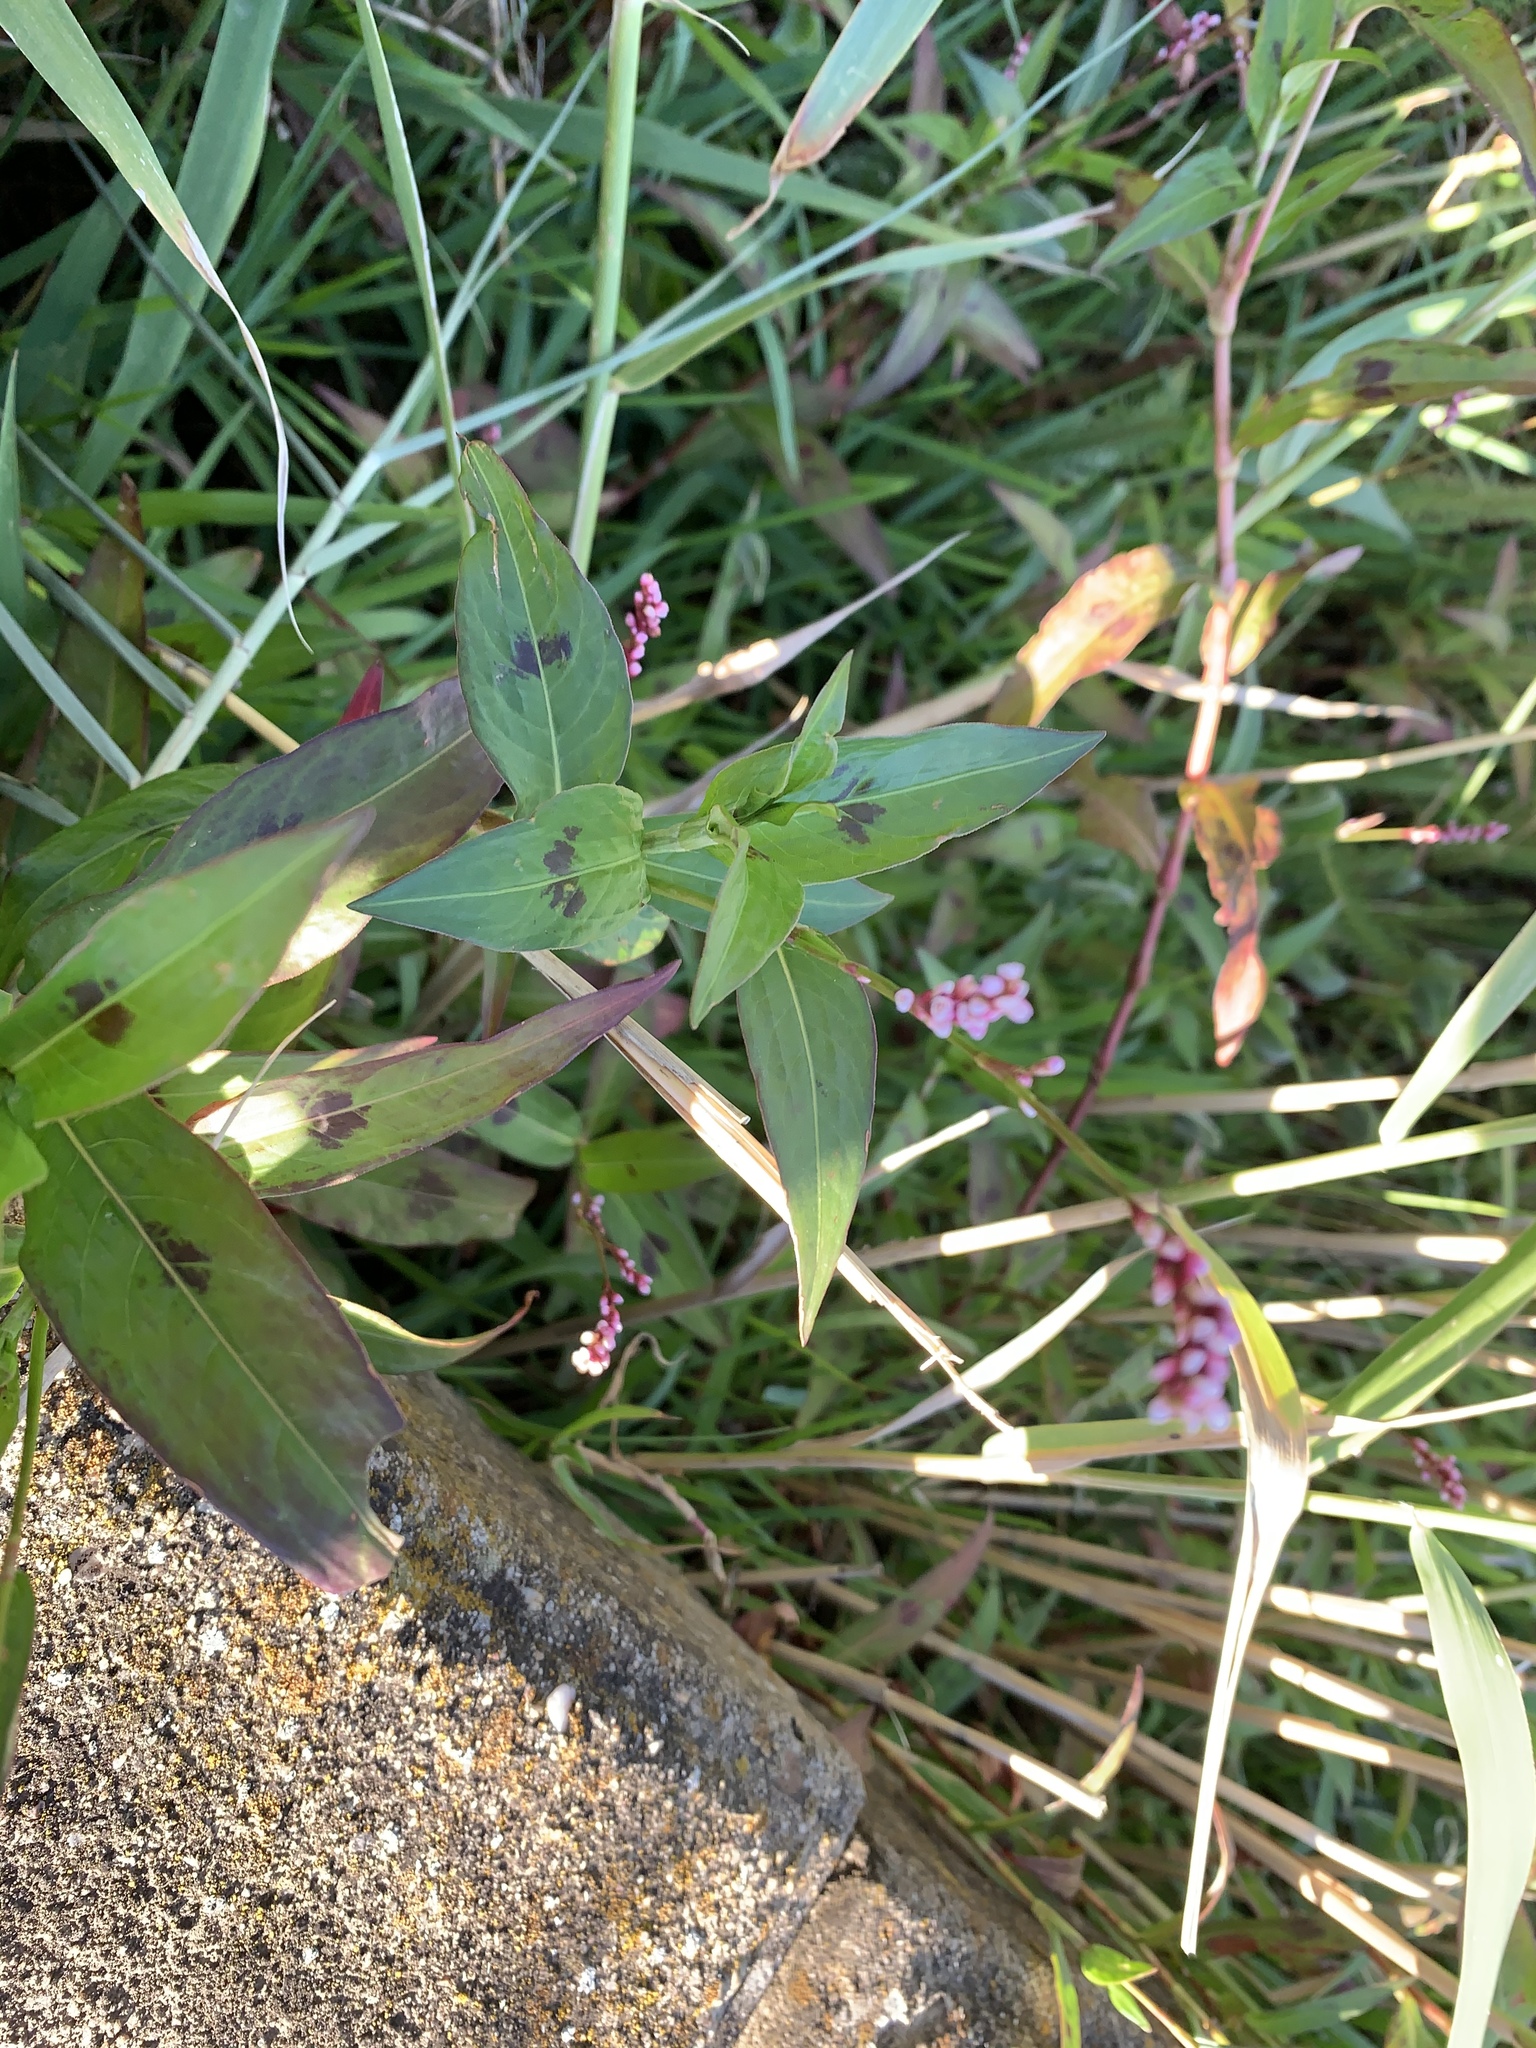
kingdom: Plantae
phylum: Tracheophyta
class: Magnoliopsida
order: Caryophyllales
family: Polygonaceae
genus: Persicaria
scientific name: Persicaria decipiens
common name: Willow-weed
